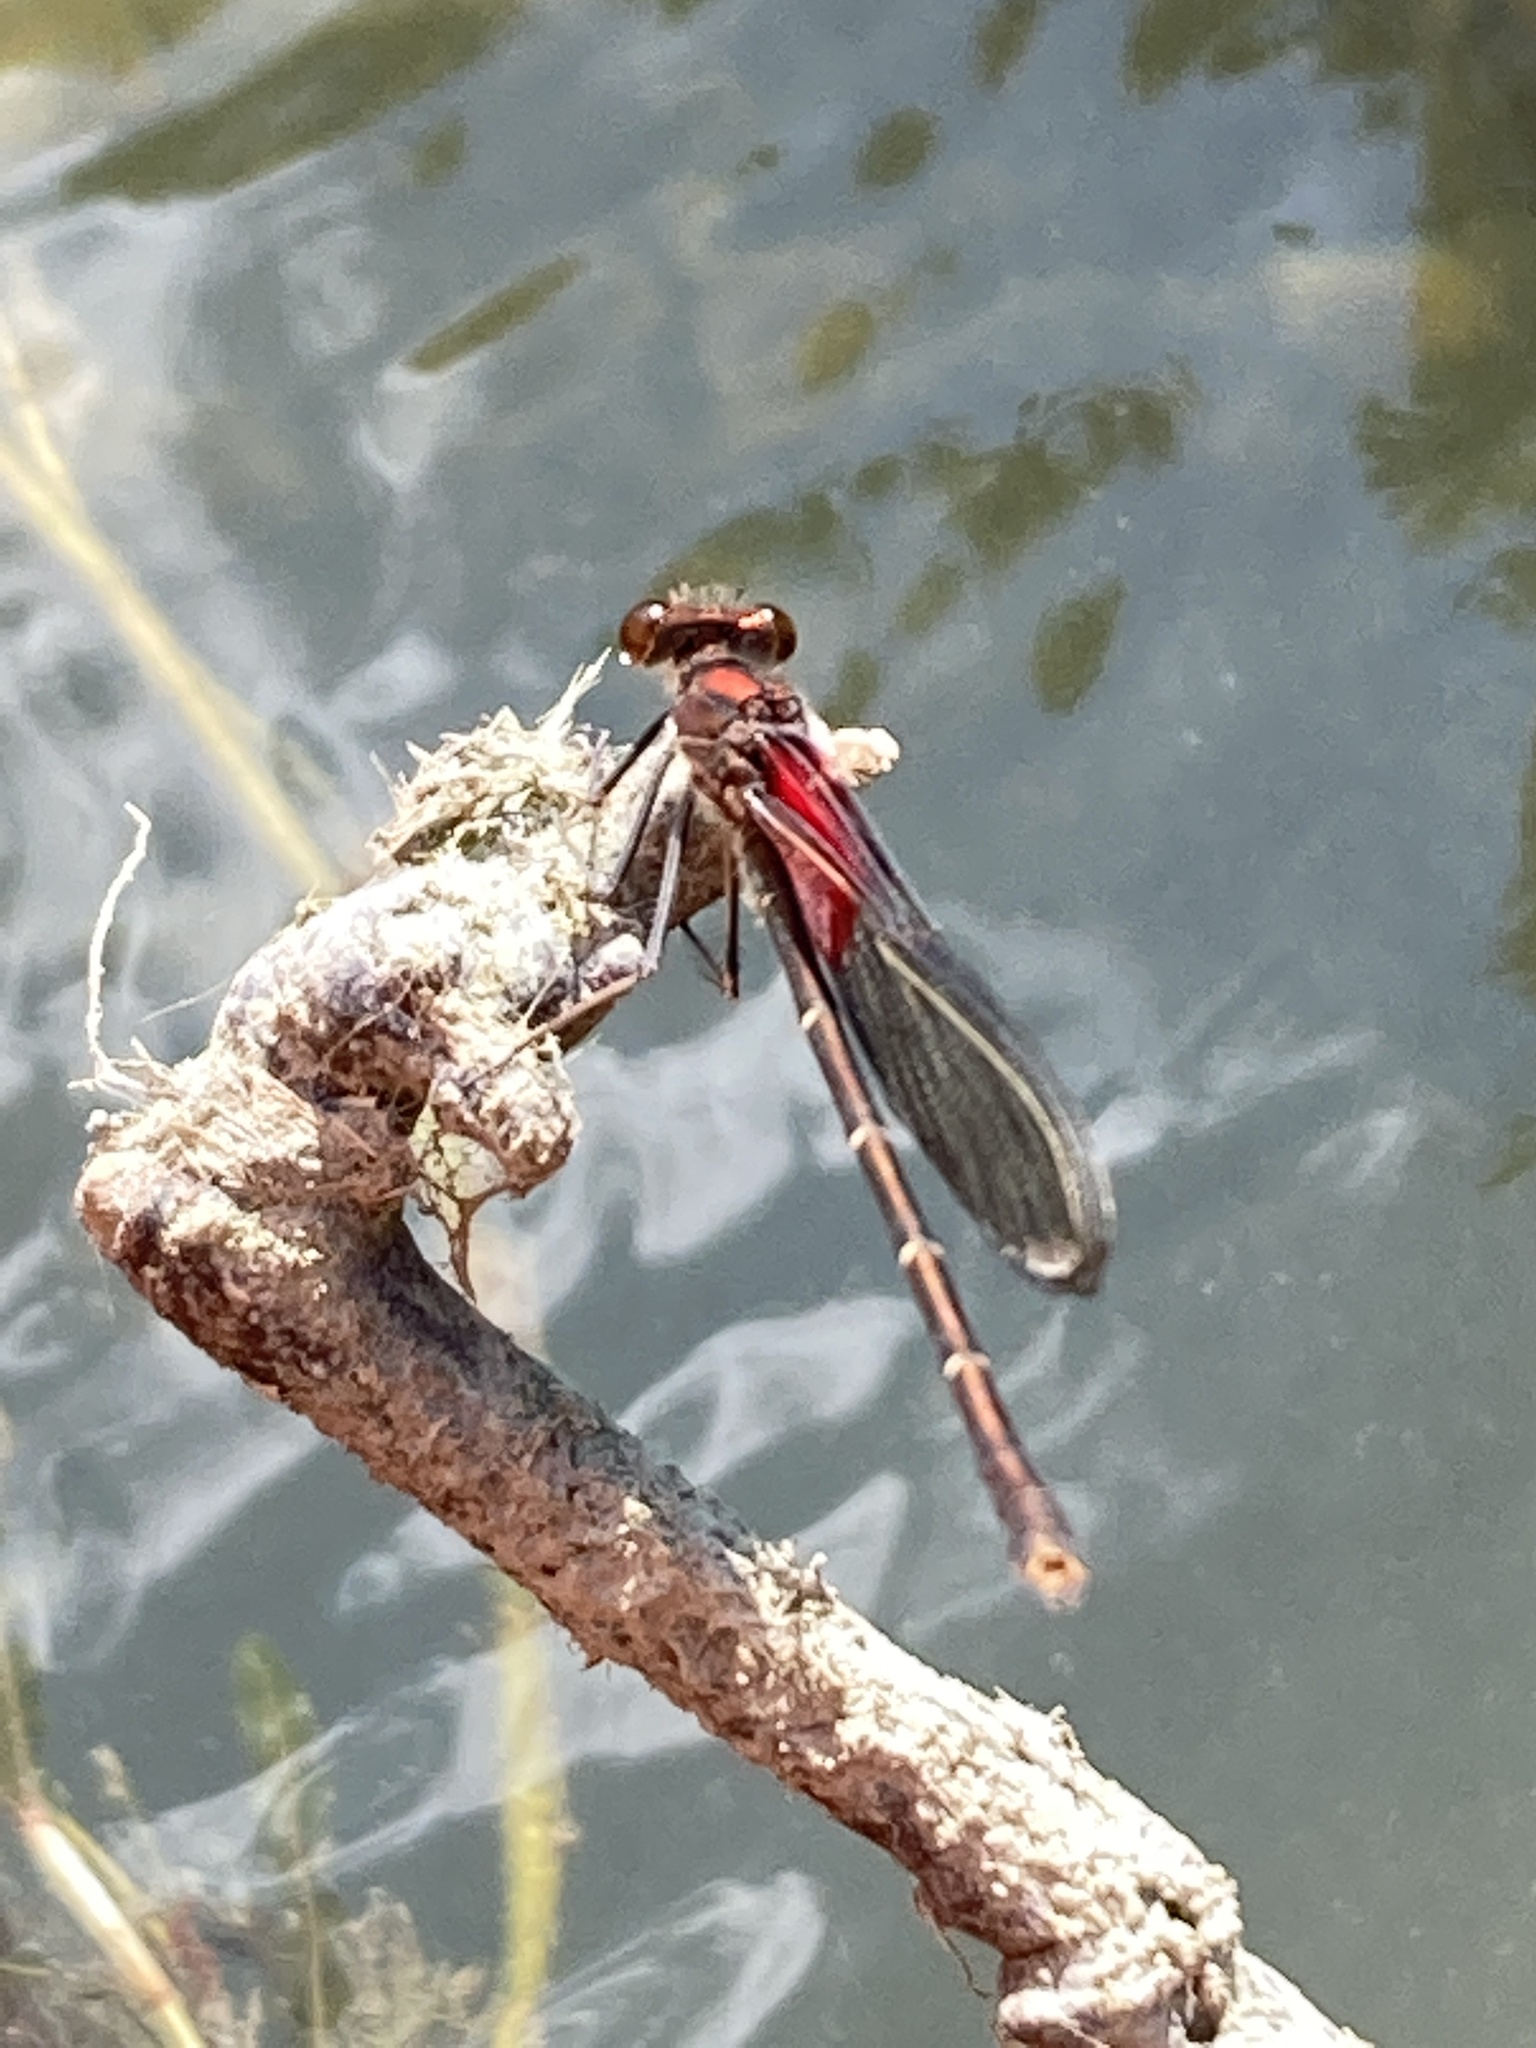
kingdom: Animalia
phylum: Arthropoda
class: Insecta
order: Odonata
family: Calopterygidae
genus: Hetaerina
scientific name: Hetaerina americana
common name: American rubyspot
